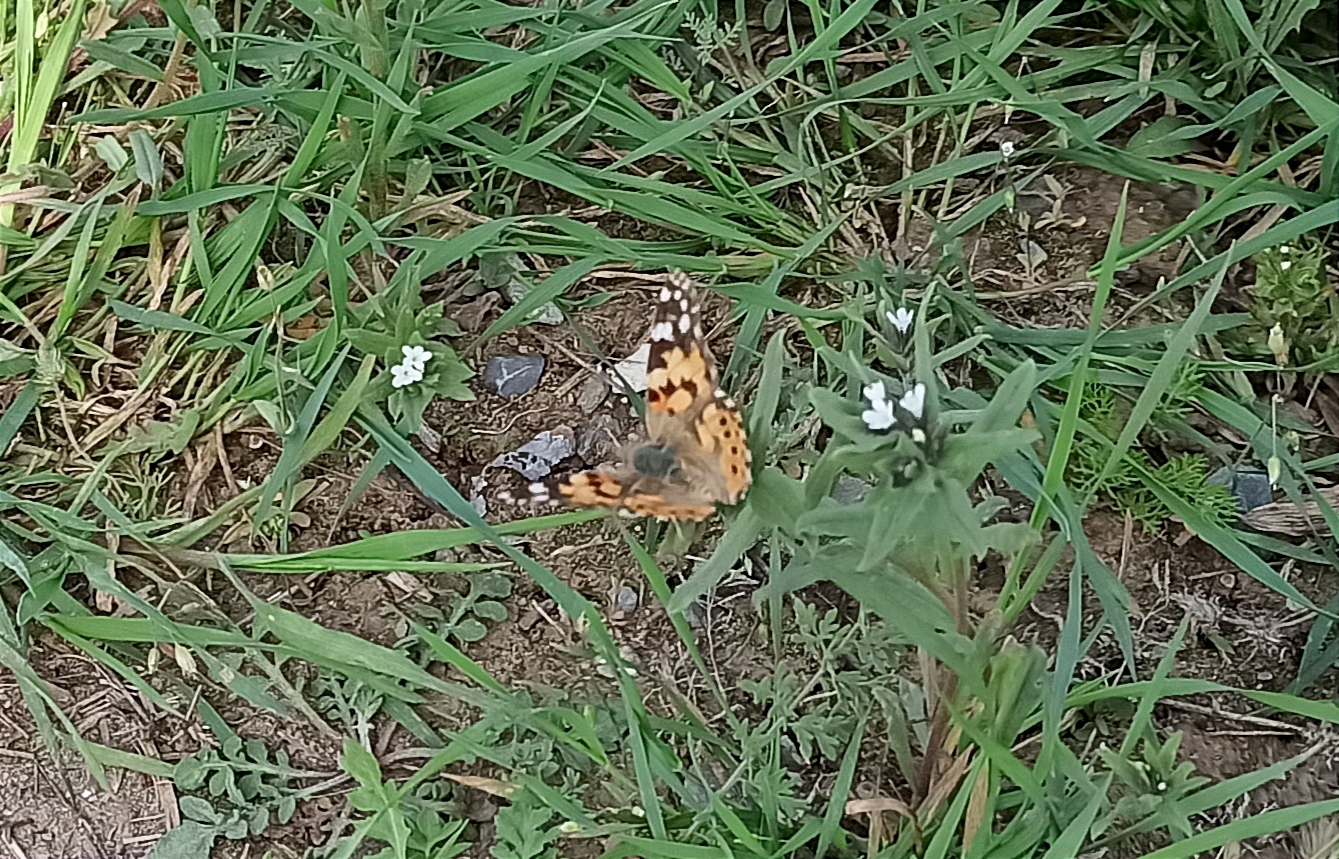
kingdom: Animalia
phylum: Arthropoda
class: Insecta
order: Lepidoptera
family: Nymphalidae
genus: Vanessa
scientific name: Vanessa cardui
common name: Painted lady
